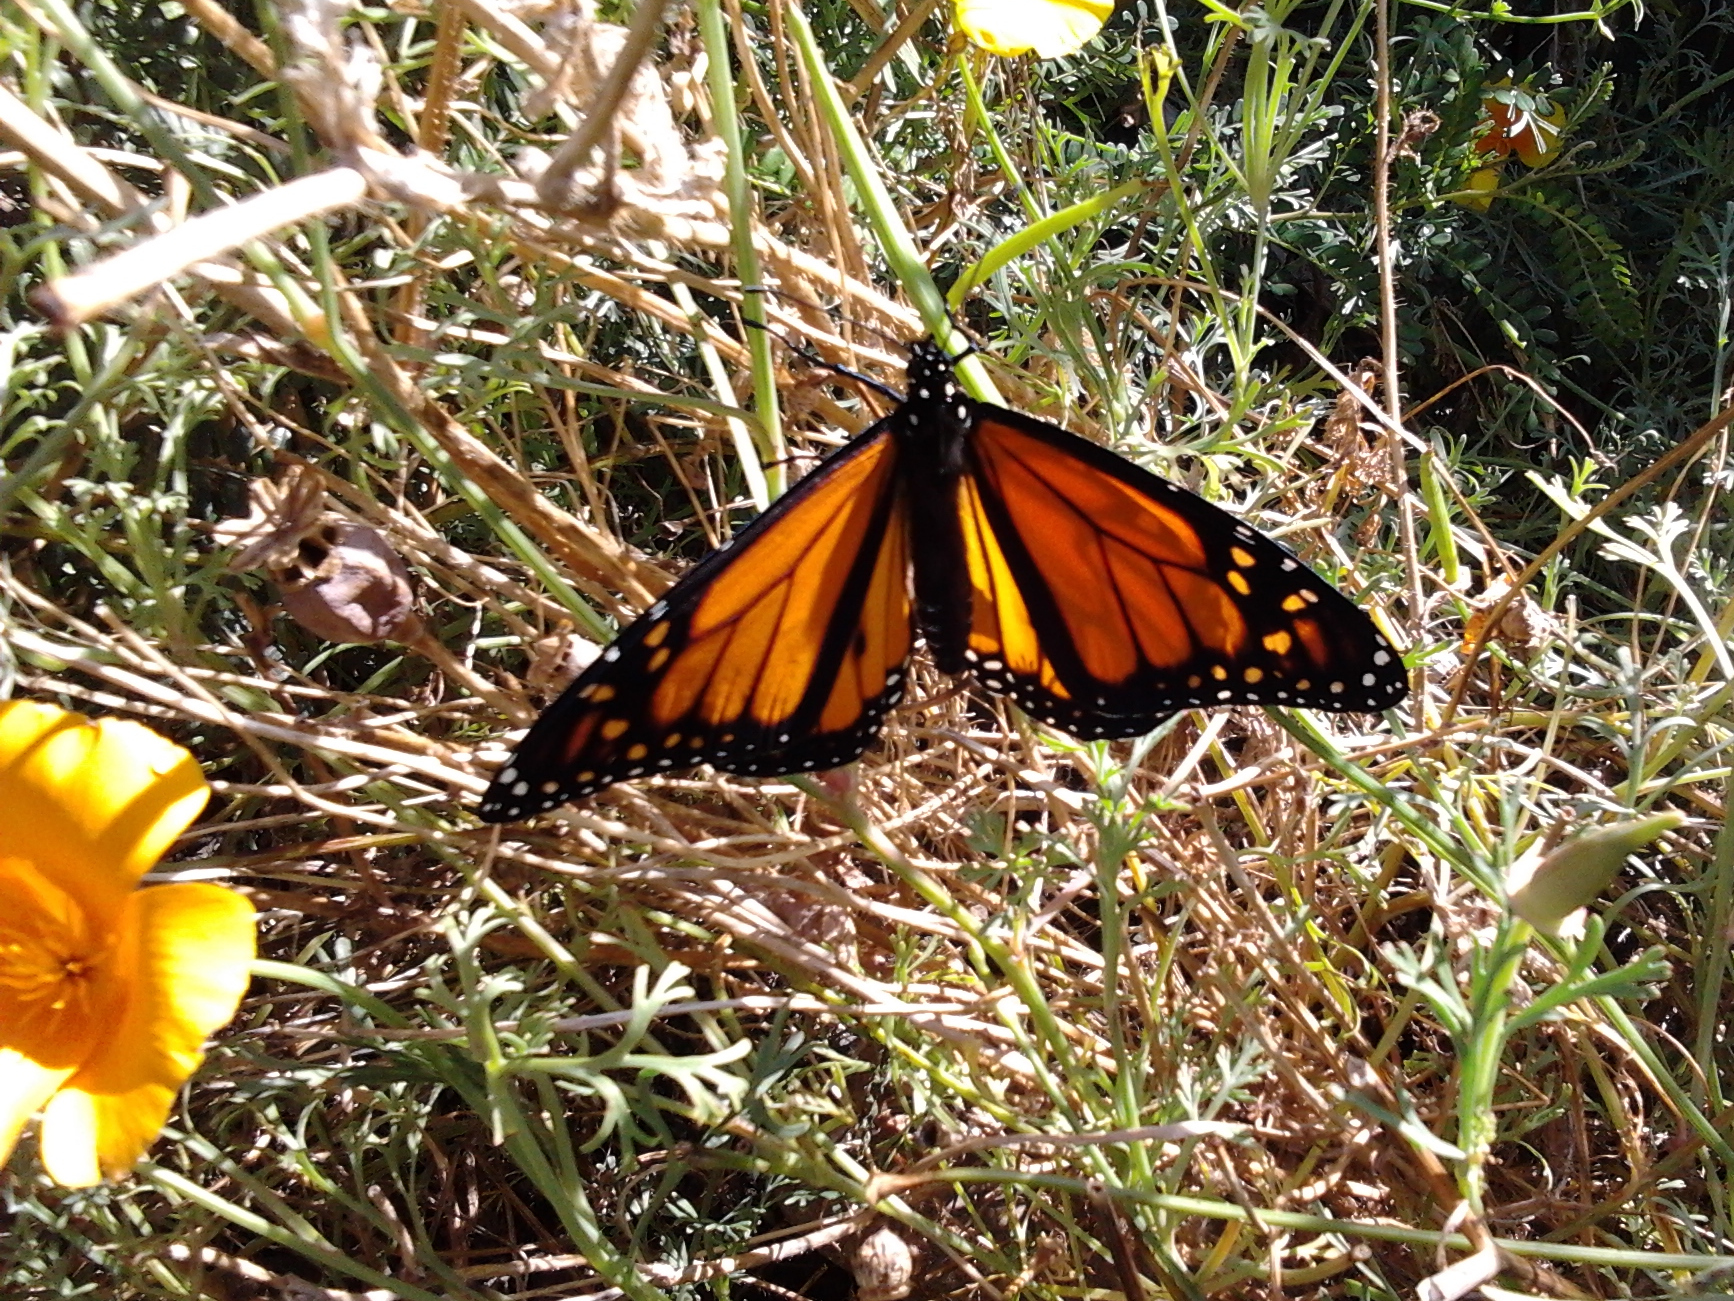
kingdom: Animalia
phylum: Arthropoda
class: Insecta
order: Lepidoptera
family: Nymphalidae
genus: Danaus
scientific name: Danaus plexippus
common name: Monarch
